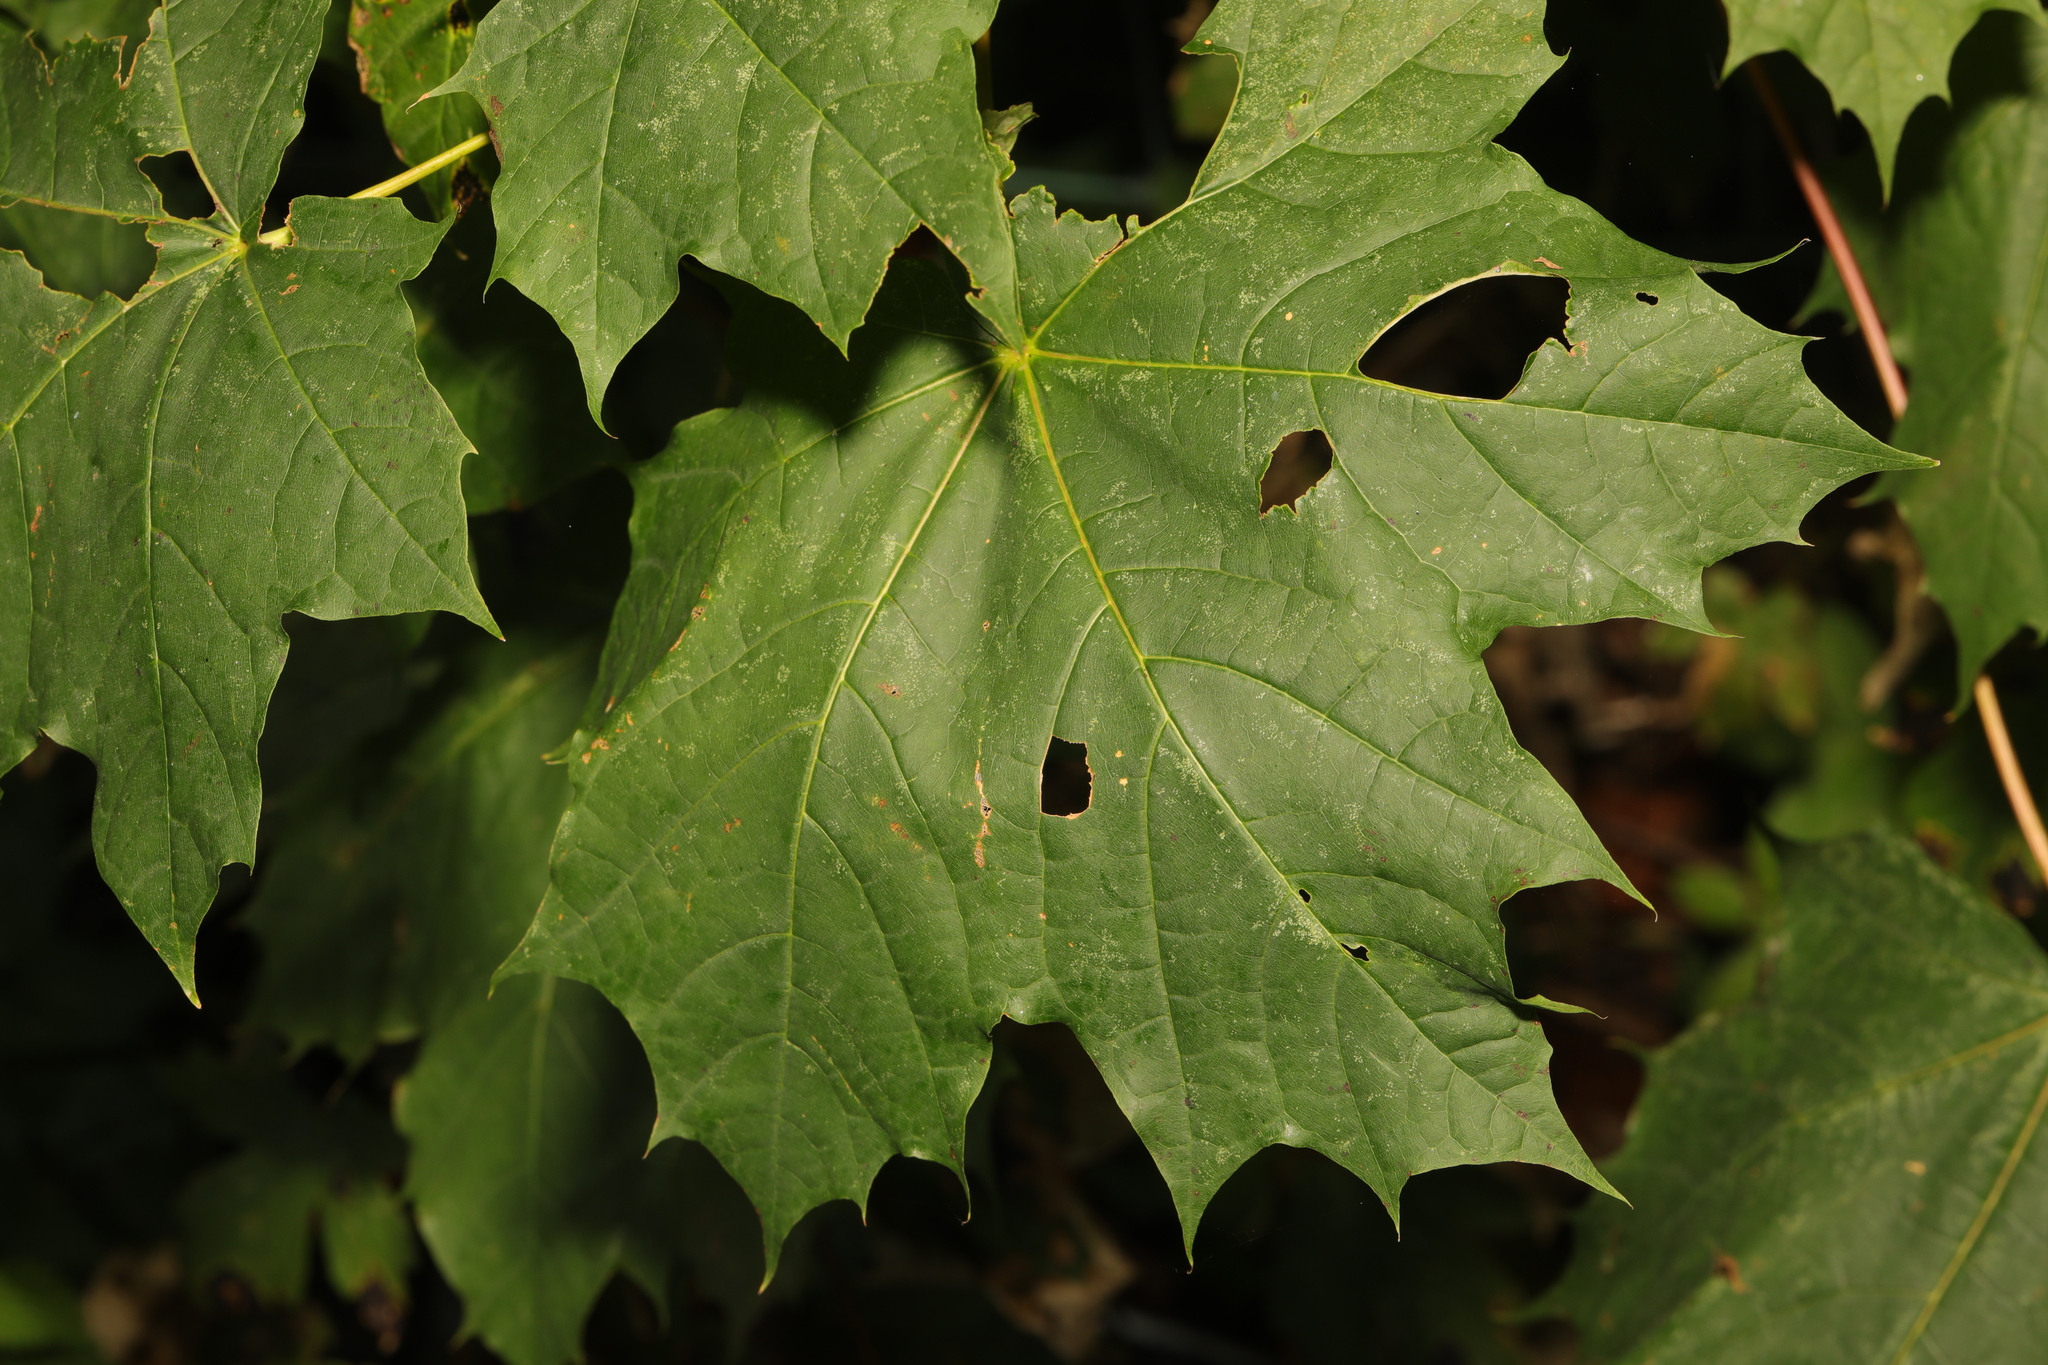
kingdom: Plantae
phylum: Tracheophyta
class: Magnoliopsida
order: Sapindales
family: Sapindaceae
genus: Acer
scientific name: Acer platanoides
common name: Norway maple
